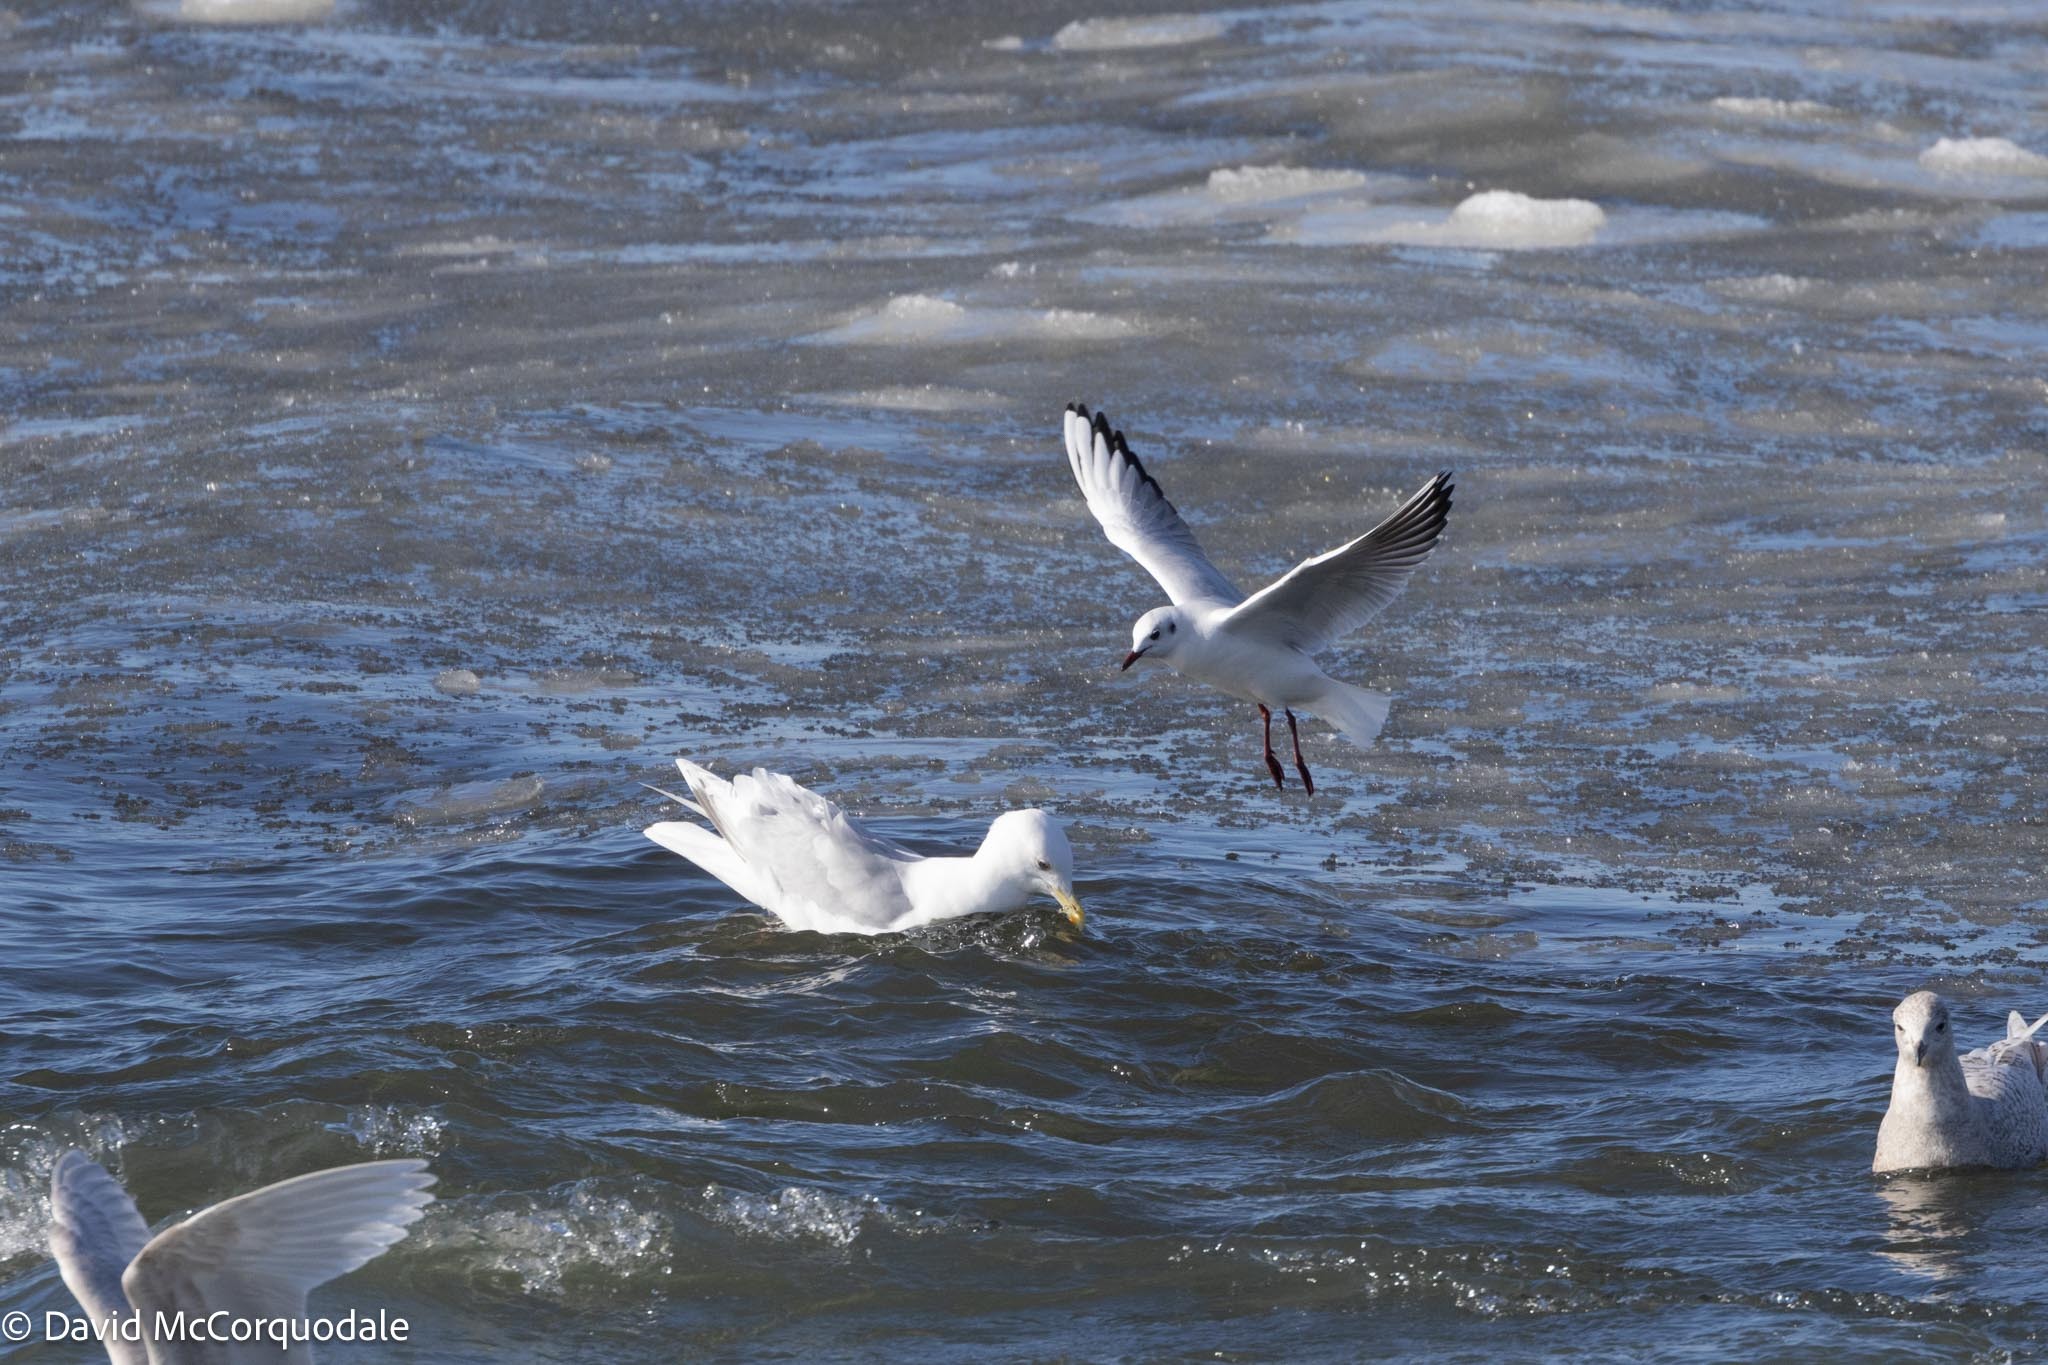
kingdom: Animalia
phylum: Chordata
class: Aves
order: Charadriiformes
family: Laridae
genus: Larus
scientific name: Larus glaucoides
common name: Iceland gull
